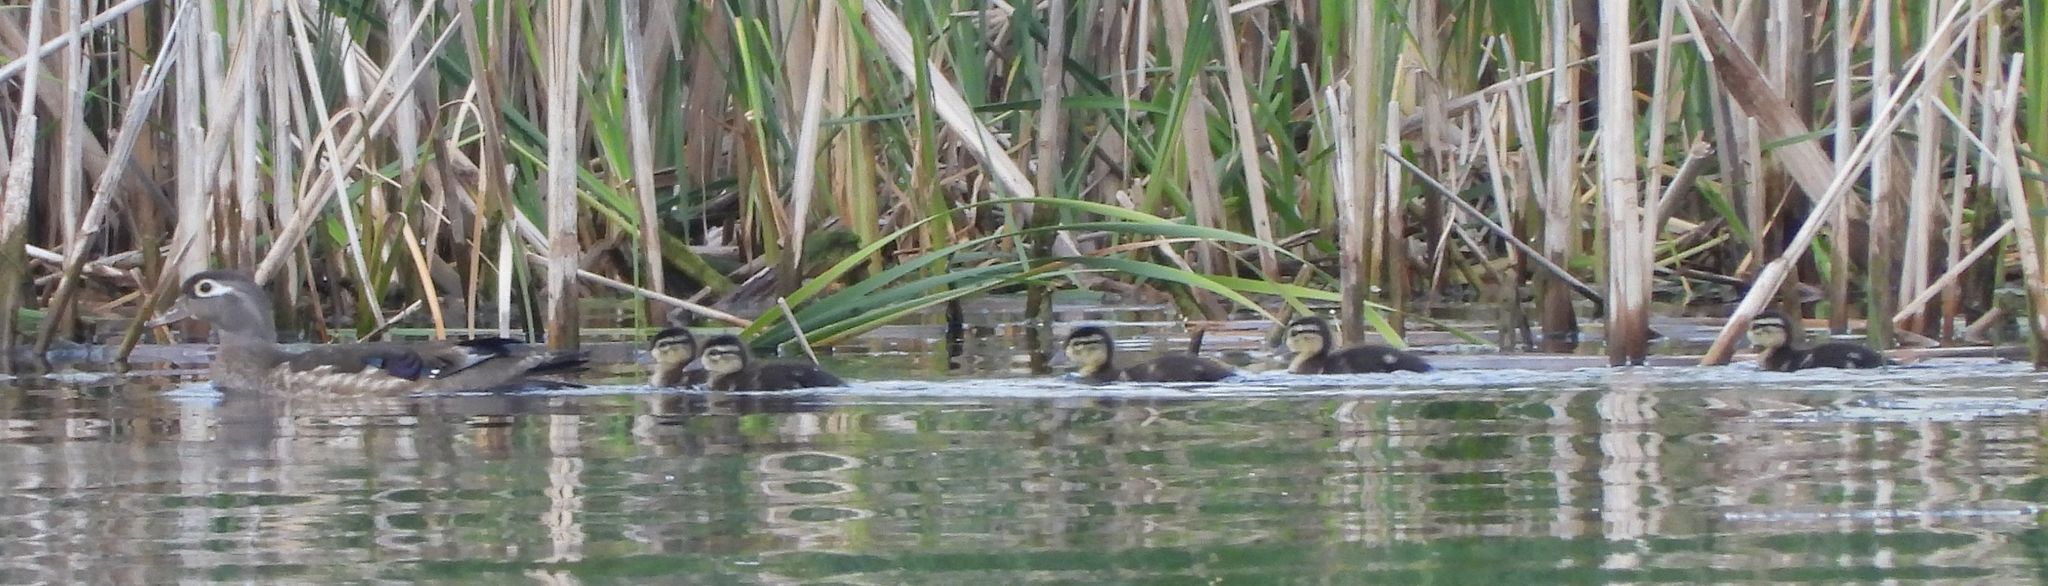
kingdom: Animalia
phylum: Chordata
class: Aves
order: Anseriformes
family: Anatidae
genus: Aix
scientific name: Aix sponsa
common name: Wood duck
